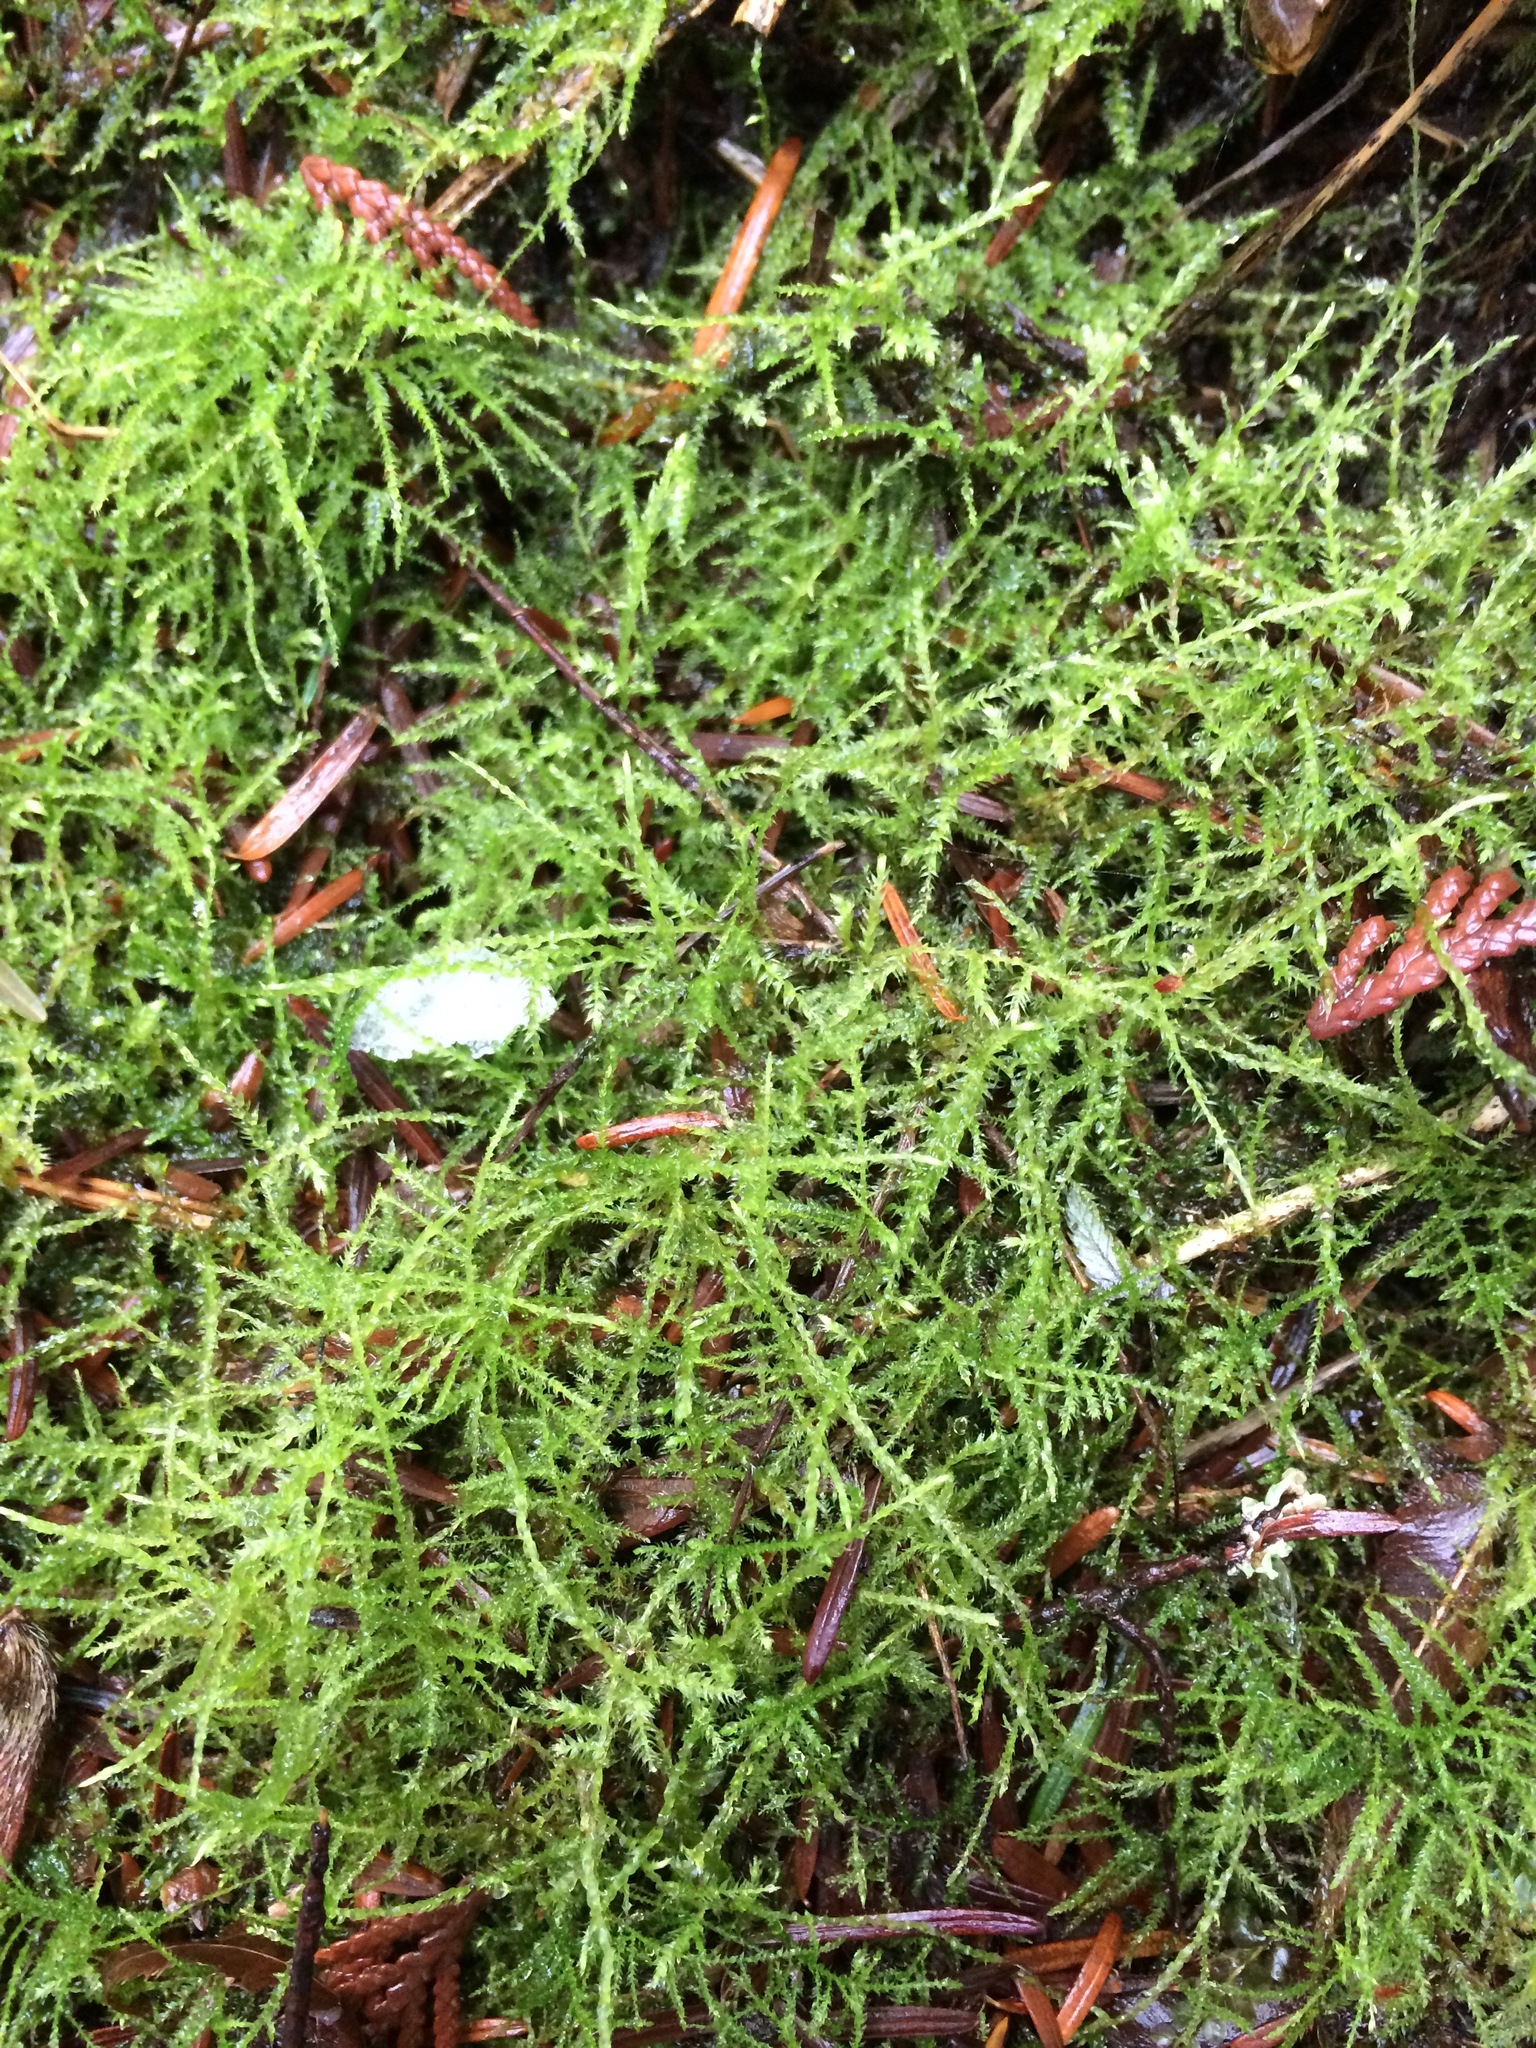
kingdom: Plantae
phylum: Bryophyta
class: Bryopsida
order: Hypnales
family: Brachytheciaceae
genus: Kindbergia
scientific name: Kindbergia praelonga
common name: Slender beaked moss
